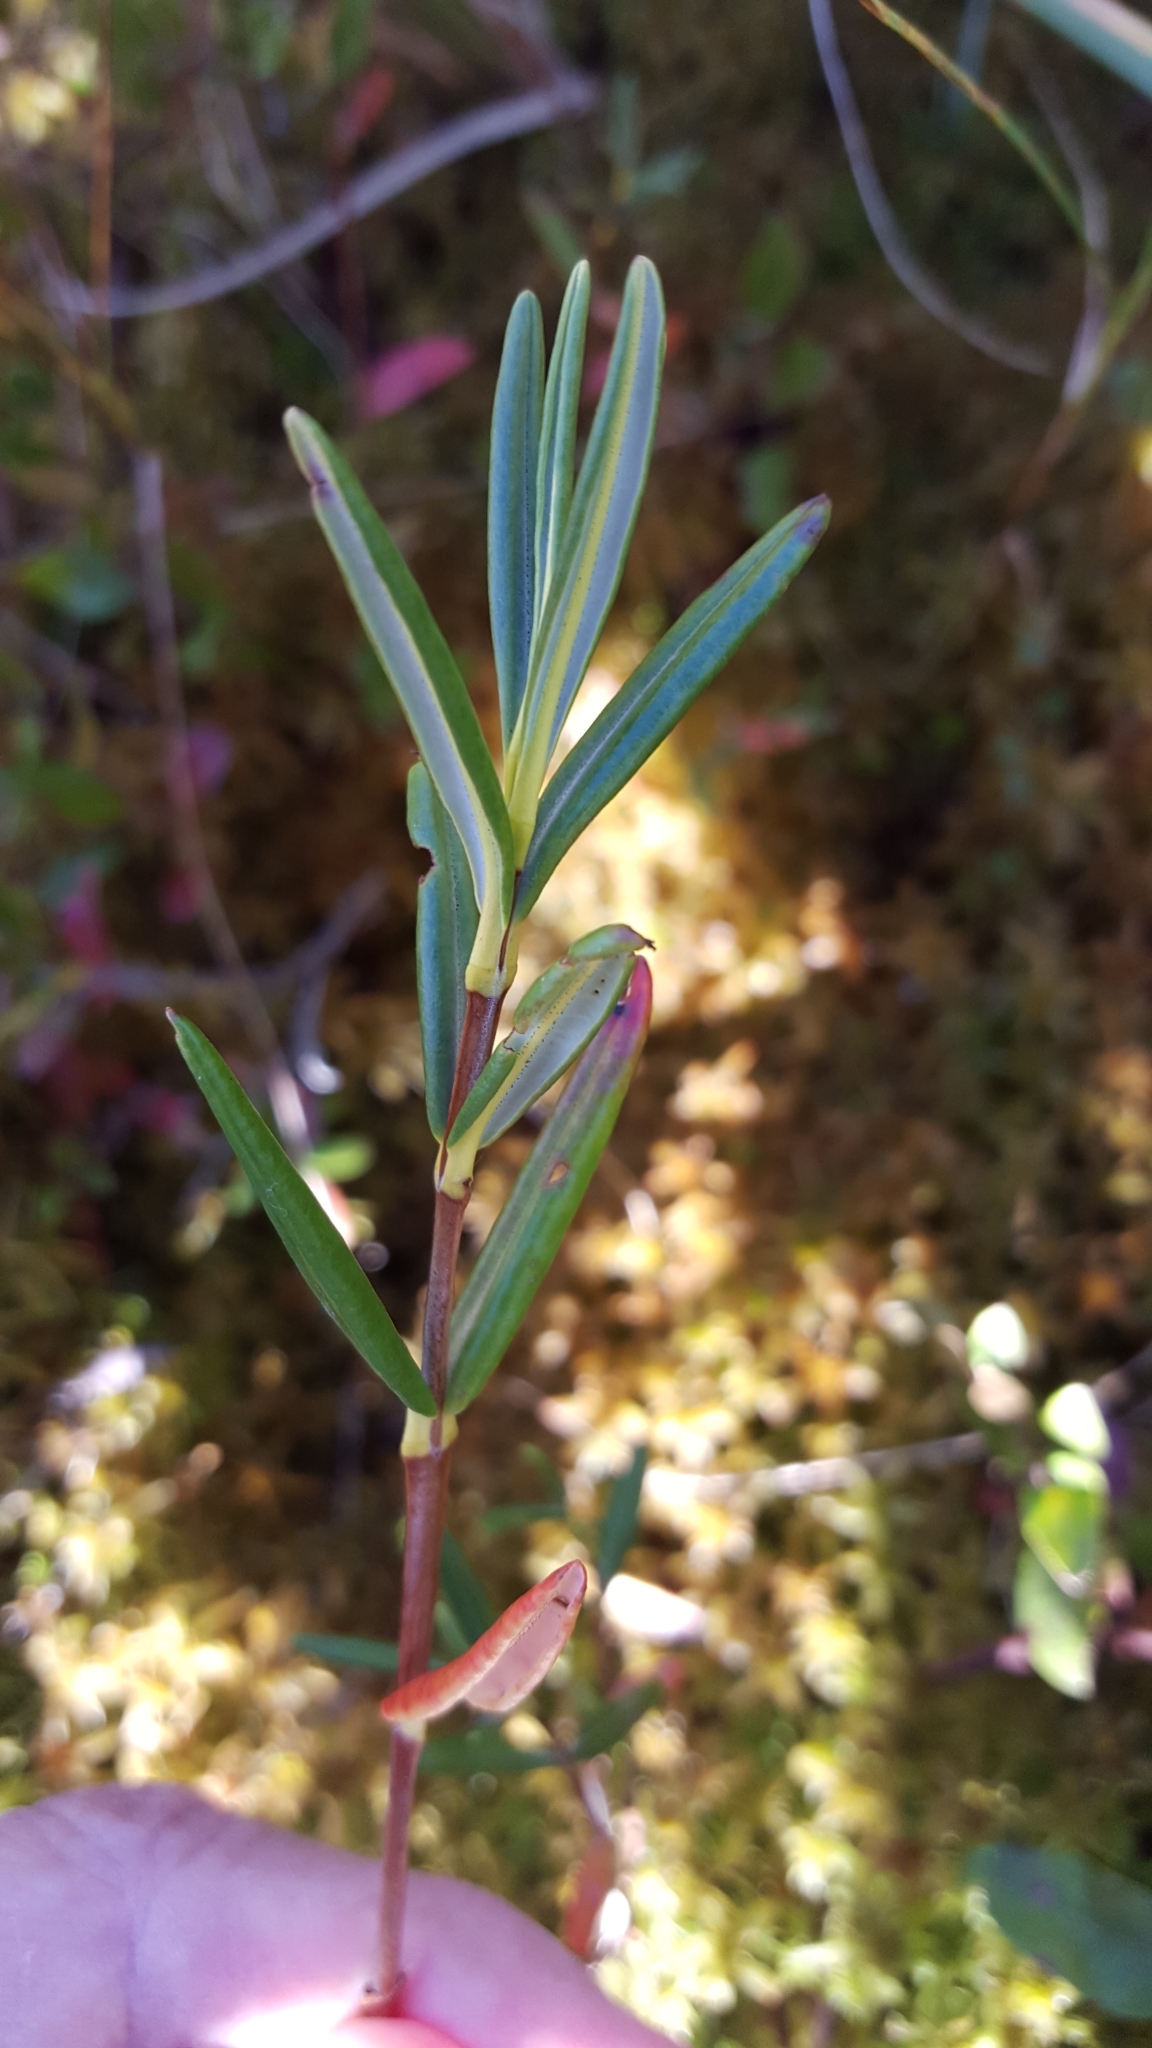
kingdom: Plantae
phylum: Tracheophyta
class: Magnoliopsida
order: Ericales
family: Ericaceae
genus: Kalmia
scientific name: Kalmia polifolia
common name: Bog-laurel
